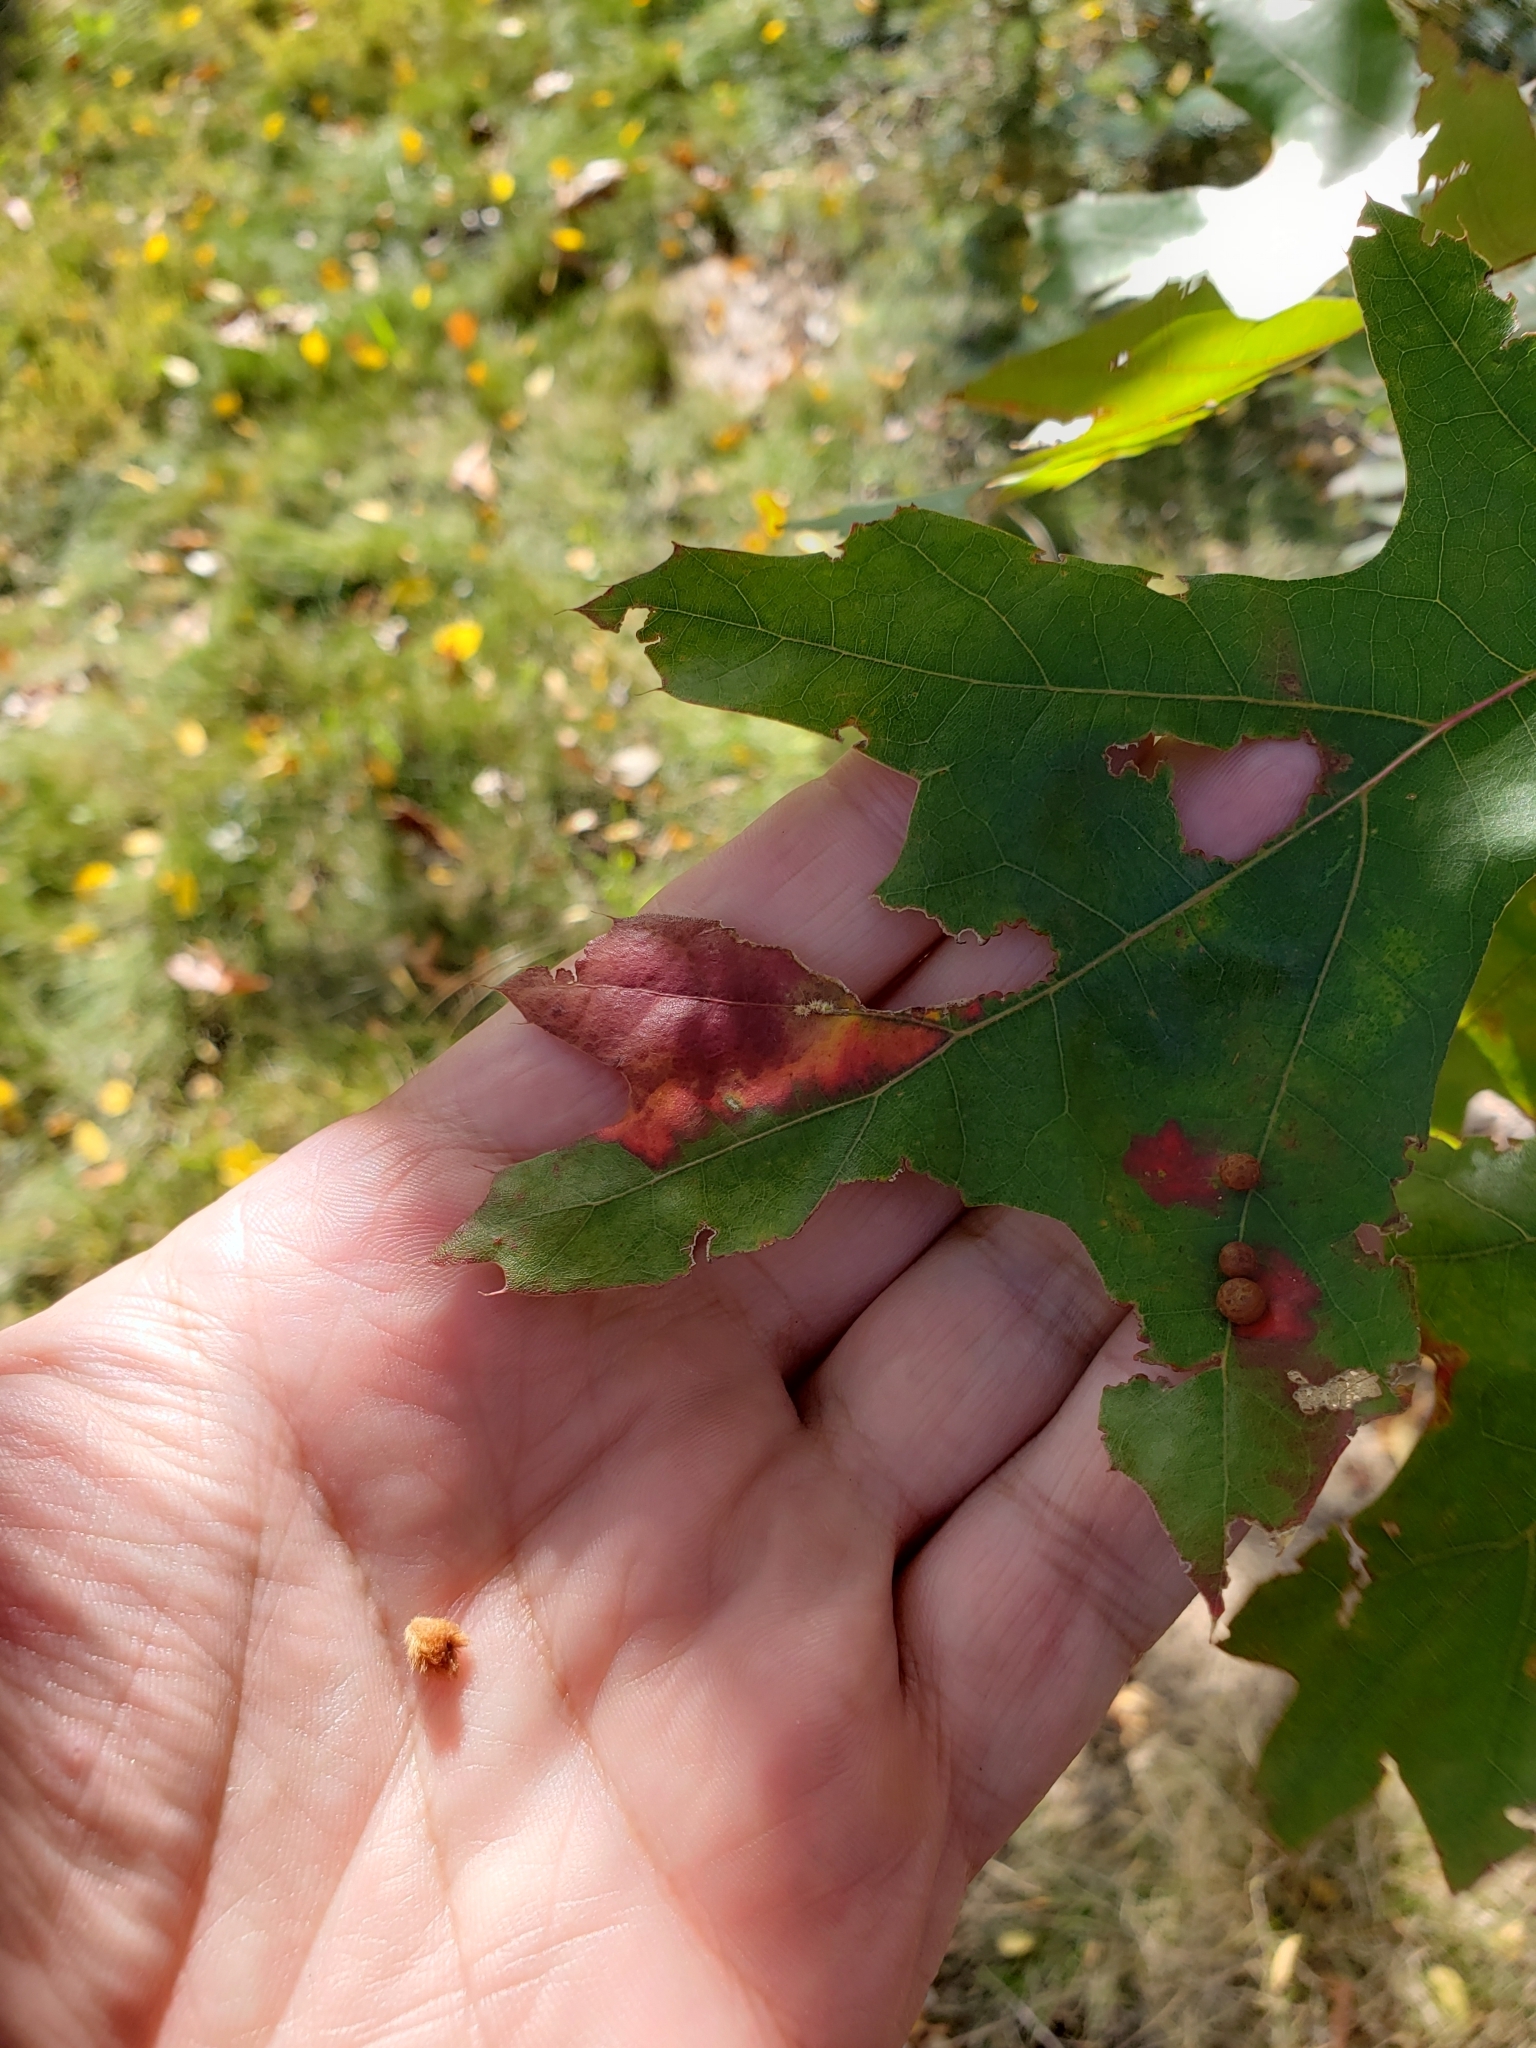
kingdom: Animalia
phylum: Arthropoda
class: Insecta
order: Hymenoptera
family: Cynipidae
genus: Callirhytis
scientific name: Callirhytis
